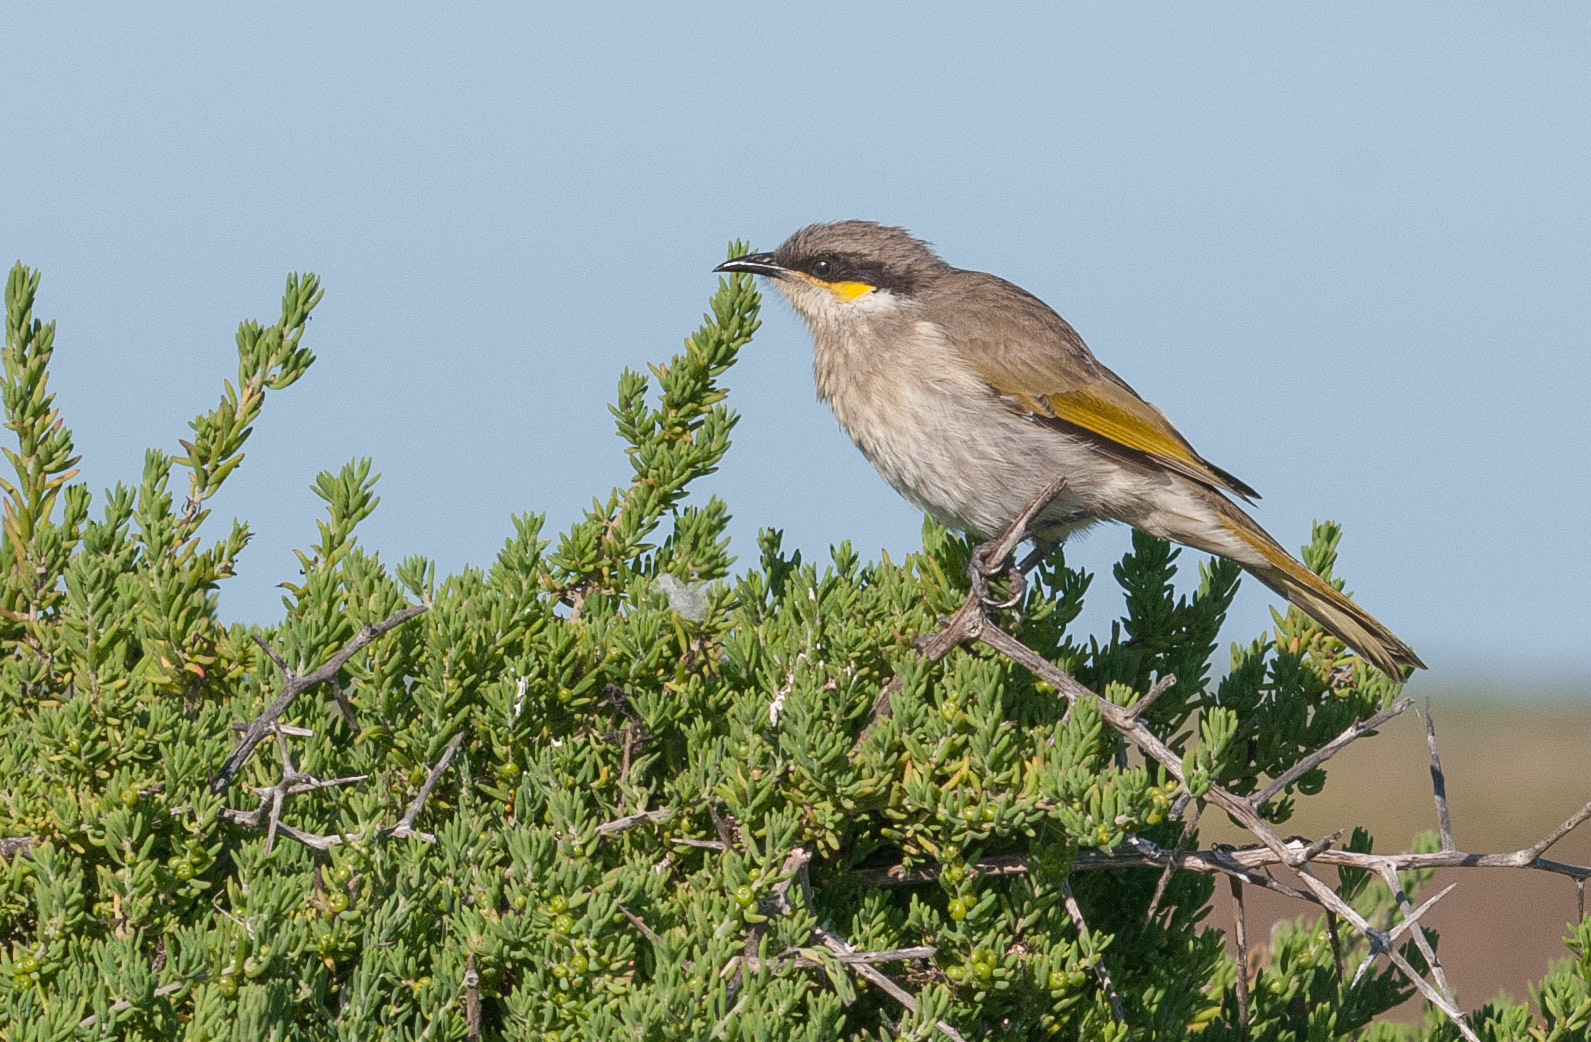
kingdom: Animalia
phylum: Chordata
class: Aves
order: Passeriformes
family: Meliphagidae
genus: Gavicalis
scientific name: Gavicalis virescens
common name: Singing honeyeater
